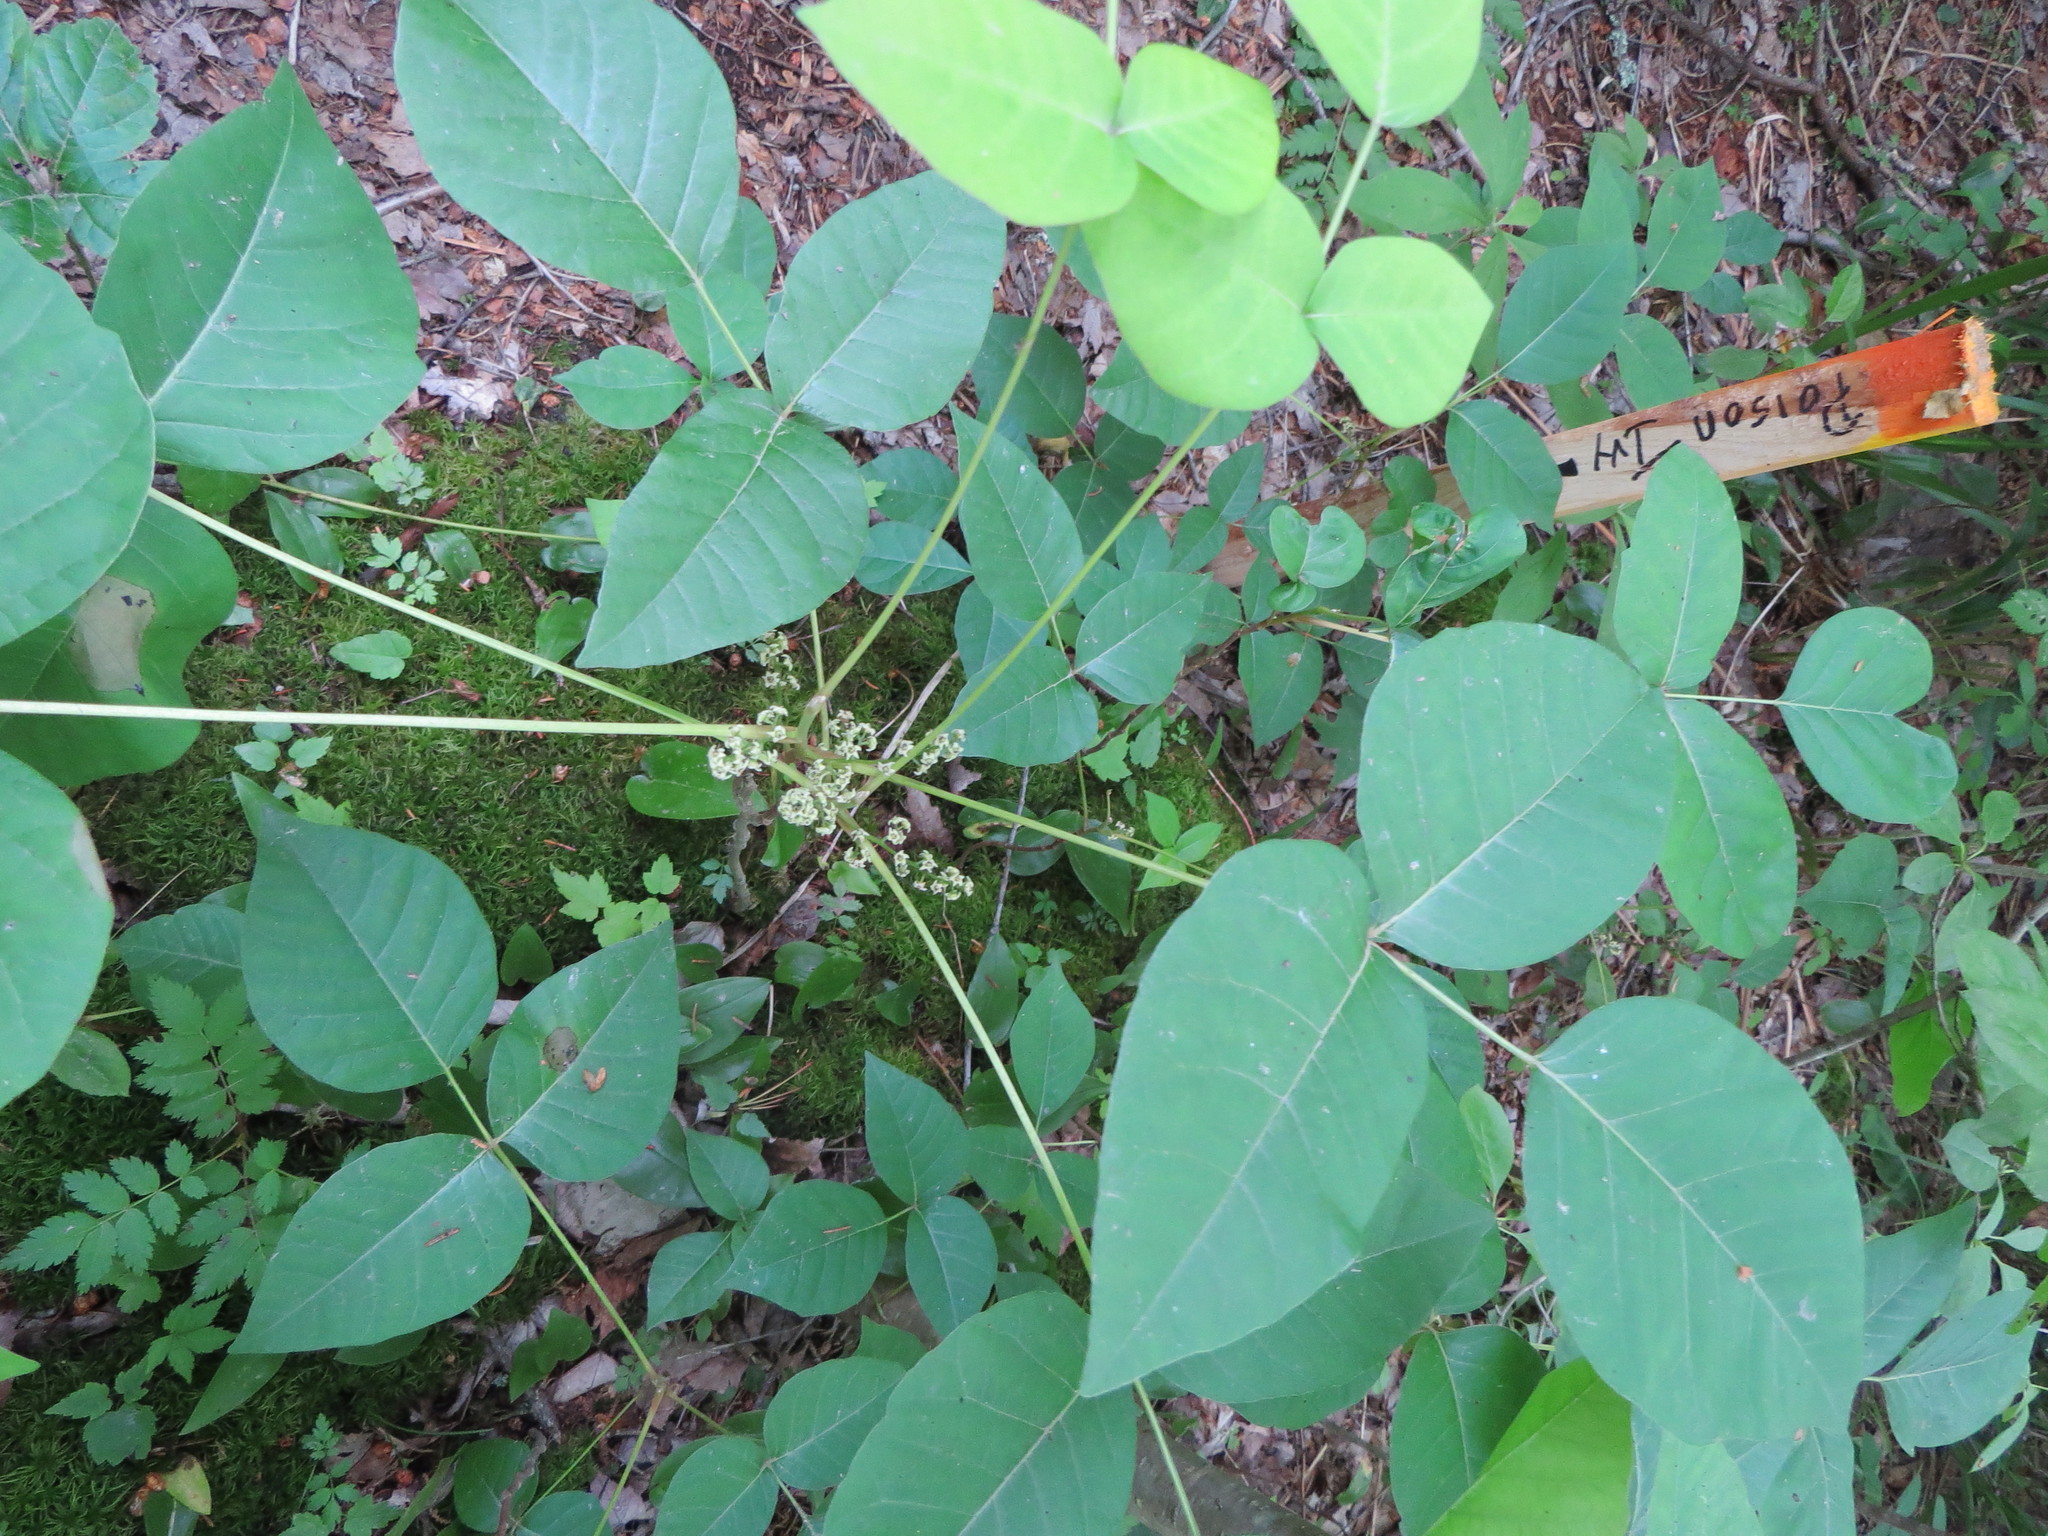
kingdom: Plantae
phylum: Tracheophyta
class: Magnoliopsida
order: Sapindales
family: Anacardiaceae
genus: Toxicodendron
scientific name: Toxicodendron radicans
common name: Poison ivy
